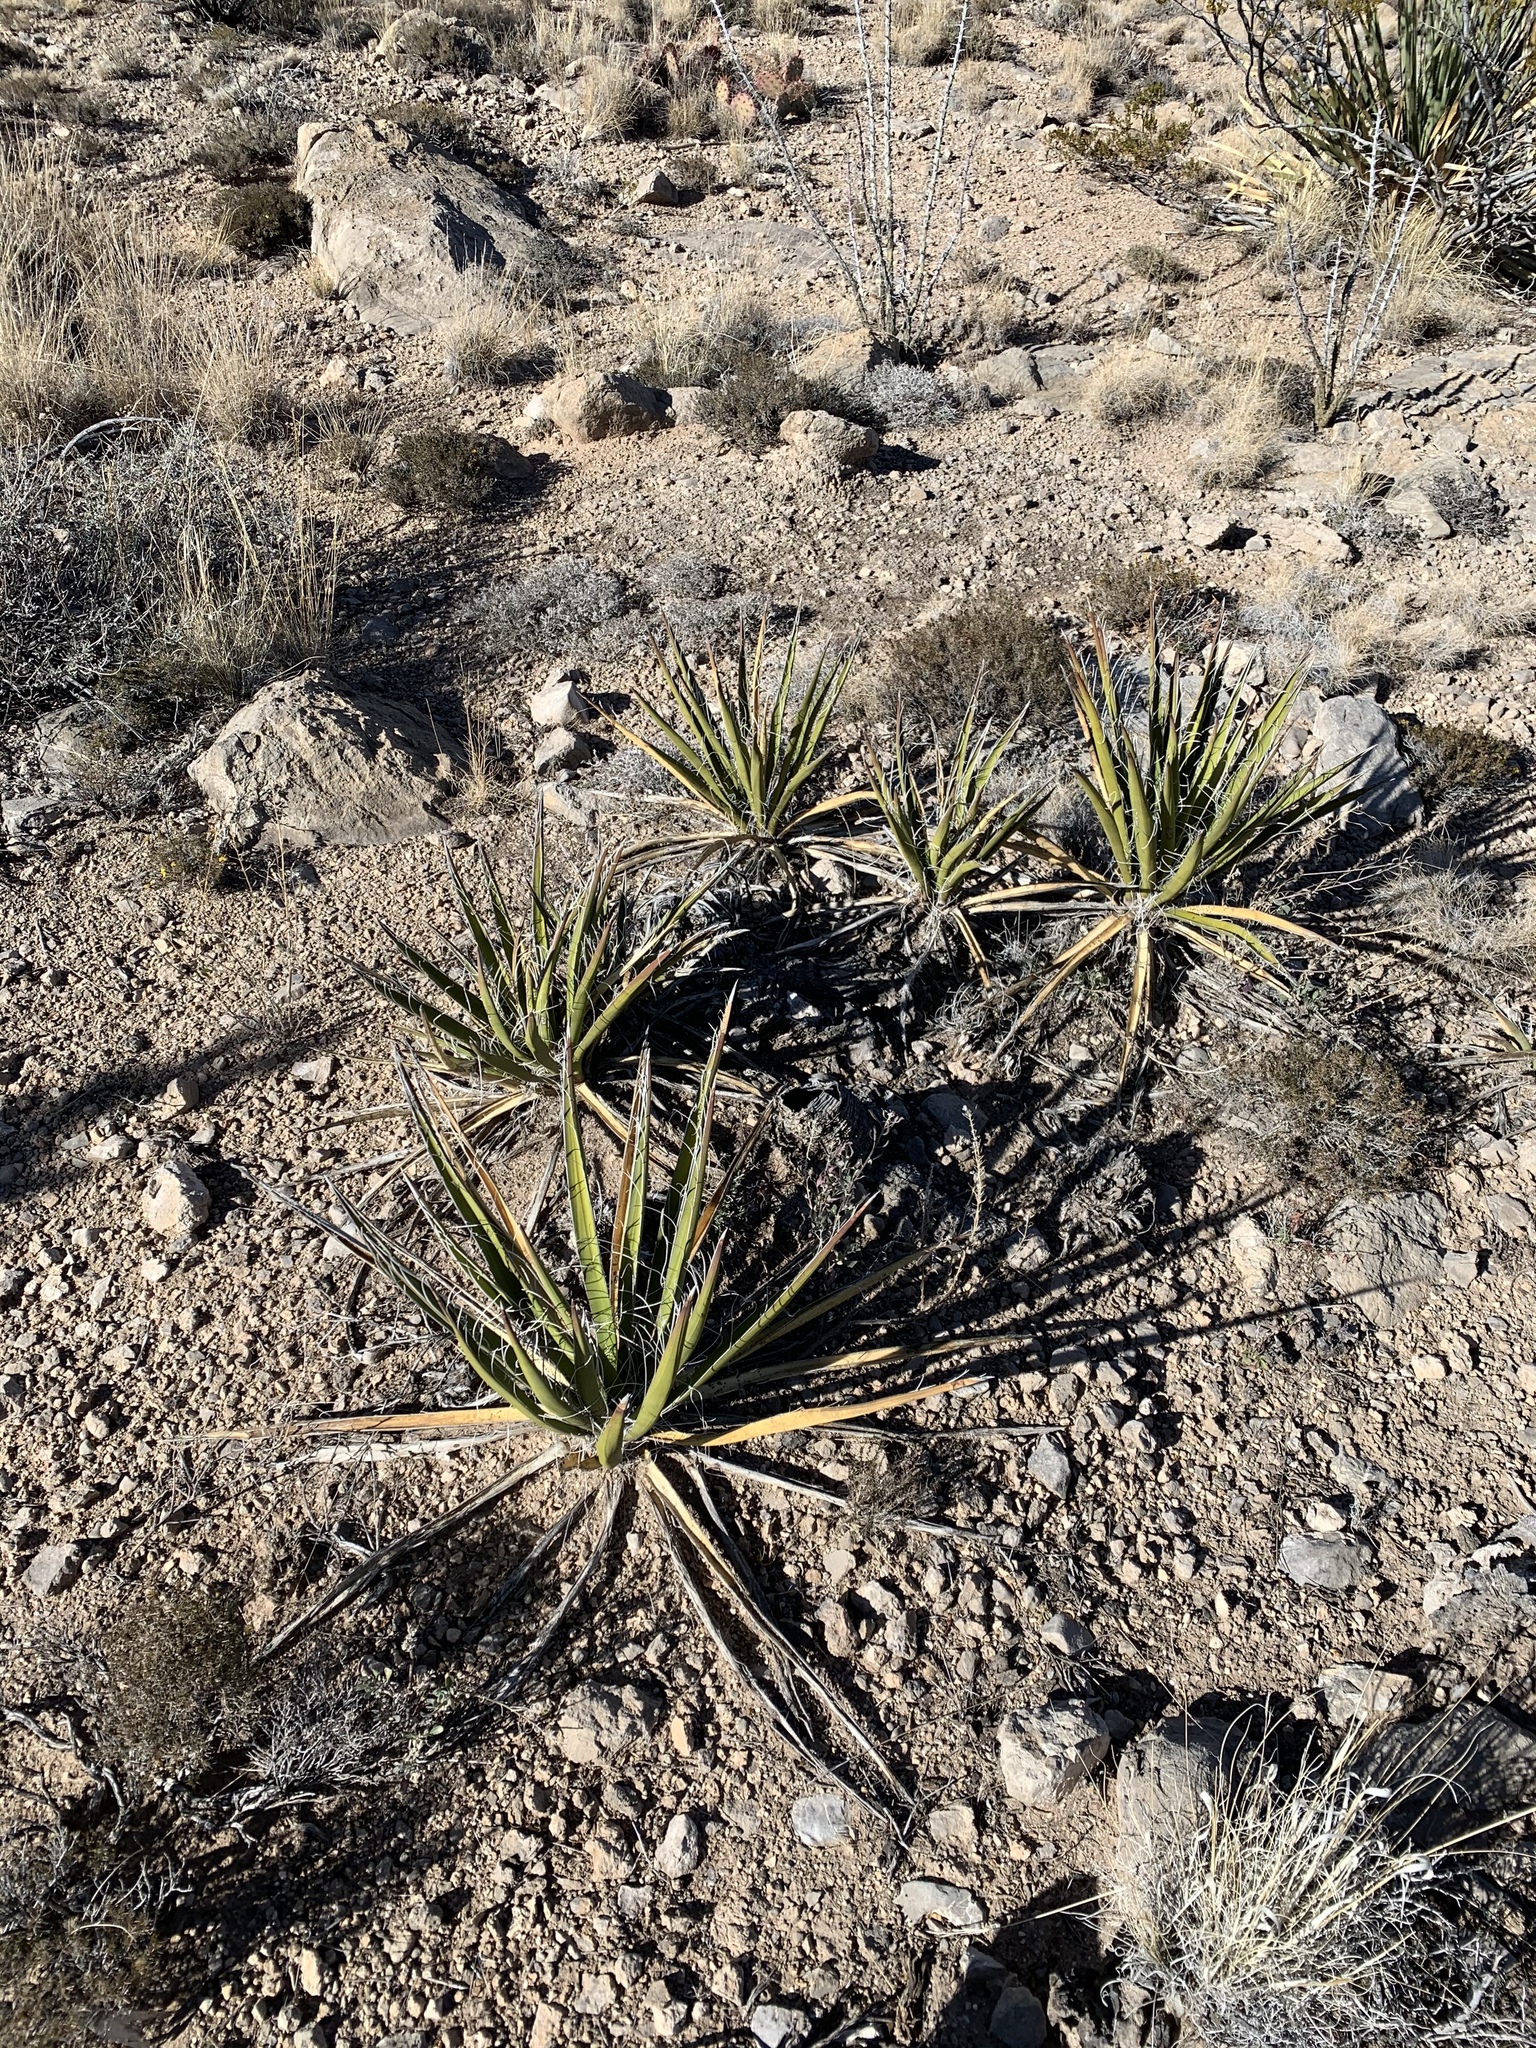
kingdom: Plantae
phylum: Tracheophyta
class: Liliopsida
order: Asparagales
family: Asparagaceae
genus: Yucca
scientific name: Yucca baccata
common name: Banana yucca
